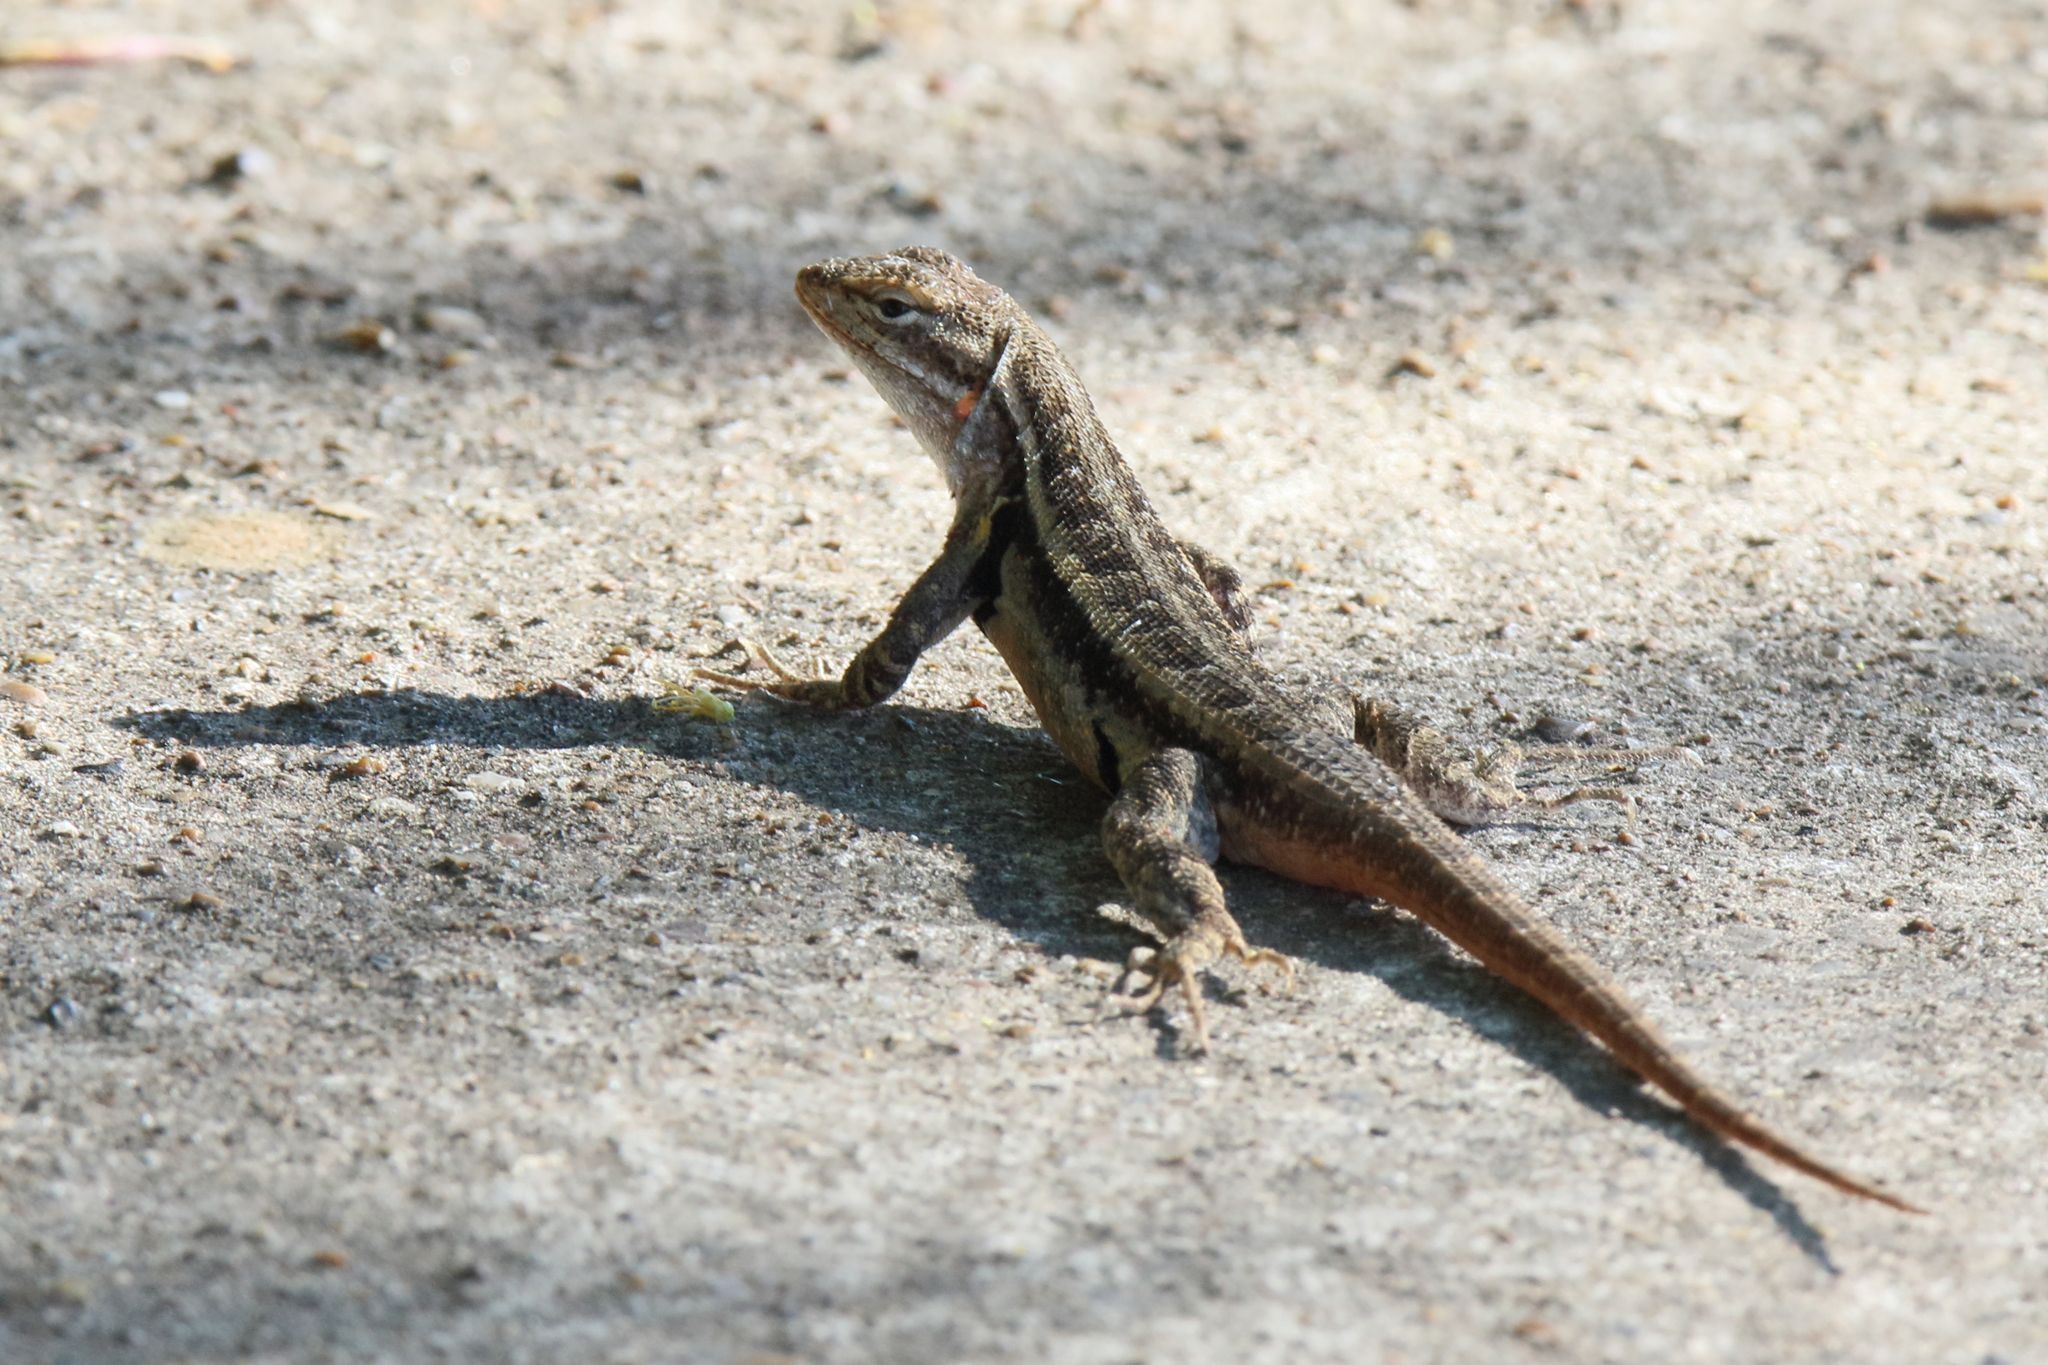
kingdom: Animalia
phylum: Chordata
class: Squamata
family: Phrynosomatidae
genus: Sceloporus
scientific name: Sceloporus variabilis
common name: Rosebelly lizard
